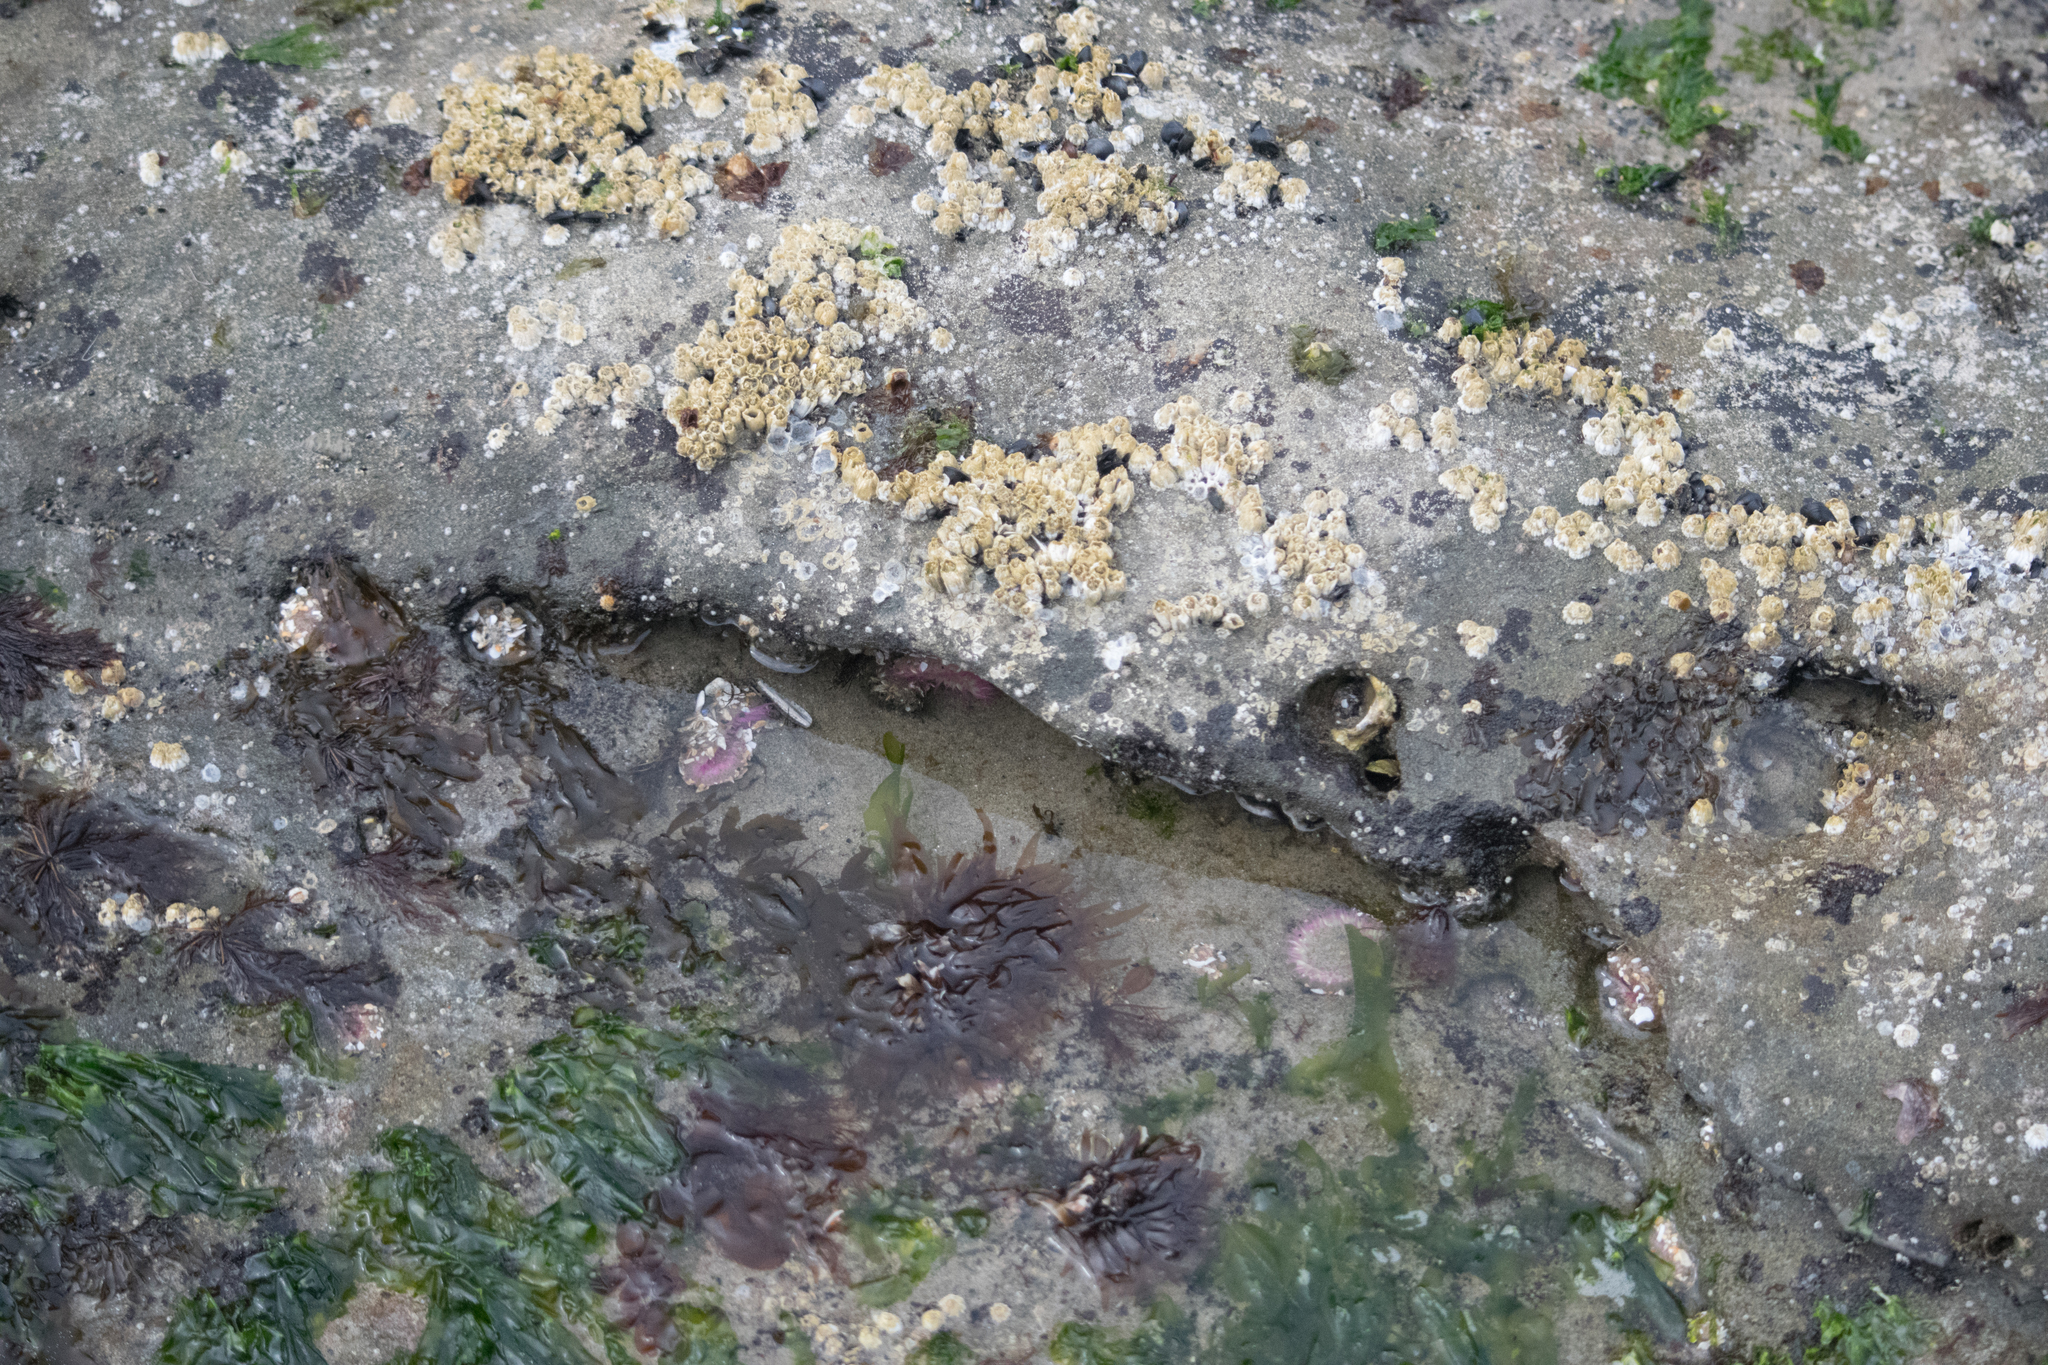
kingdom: Animalia
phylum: Cnidaria
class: Anthozoa
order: Actiniaria
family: Actiniidae
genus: Anthopleura
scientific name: Anthopleura elegantissima
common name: Clonal anemone
